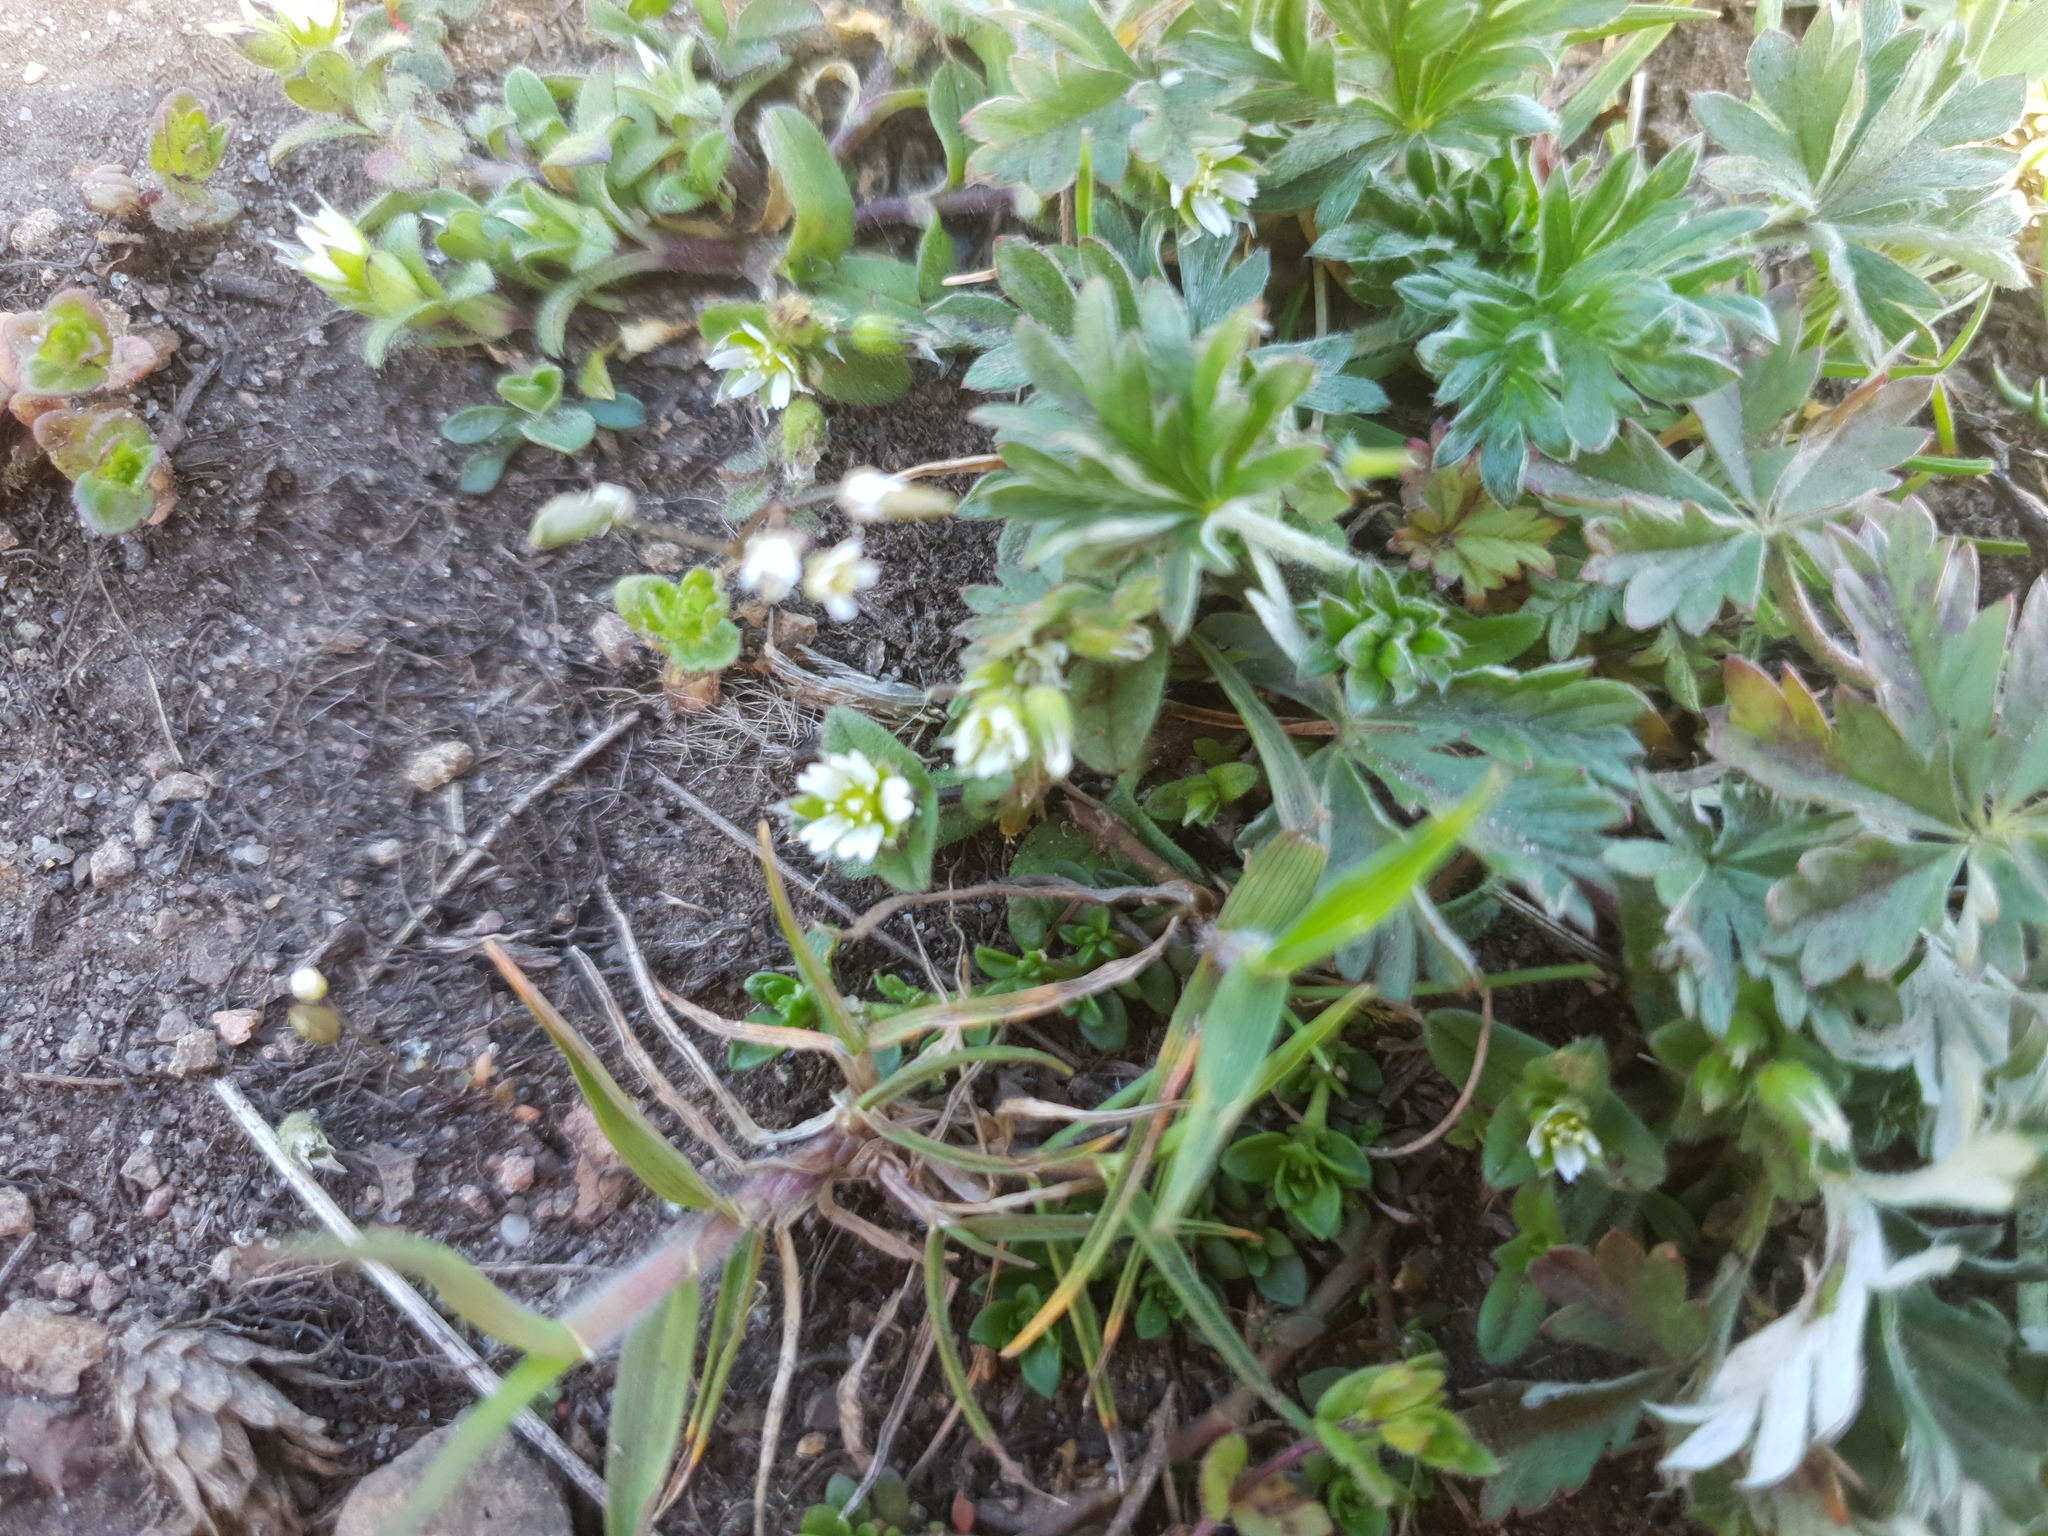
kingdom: Plantae
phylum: Tracheophyta
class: Magnoliopsida
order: Caryophyllales
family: Caryophyllaceae
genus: Cerastium
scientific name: Cerastium semidecandrum
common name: Little mouse-ear
